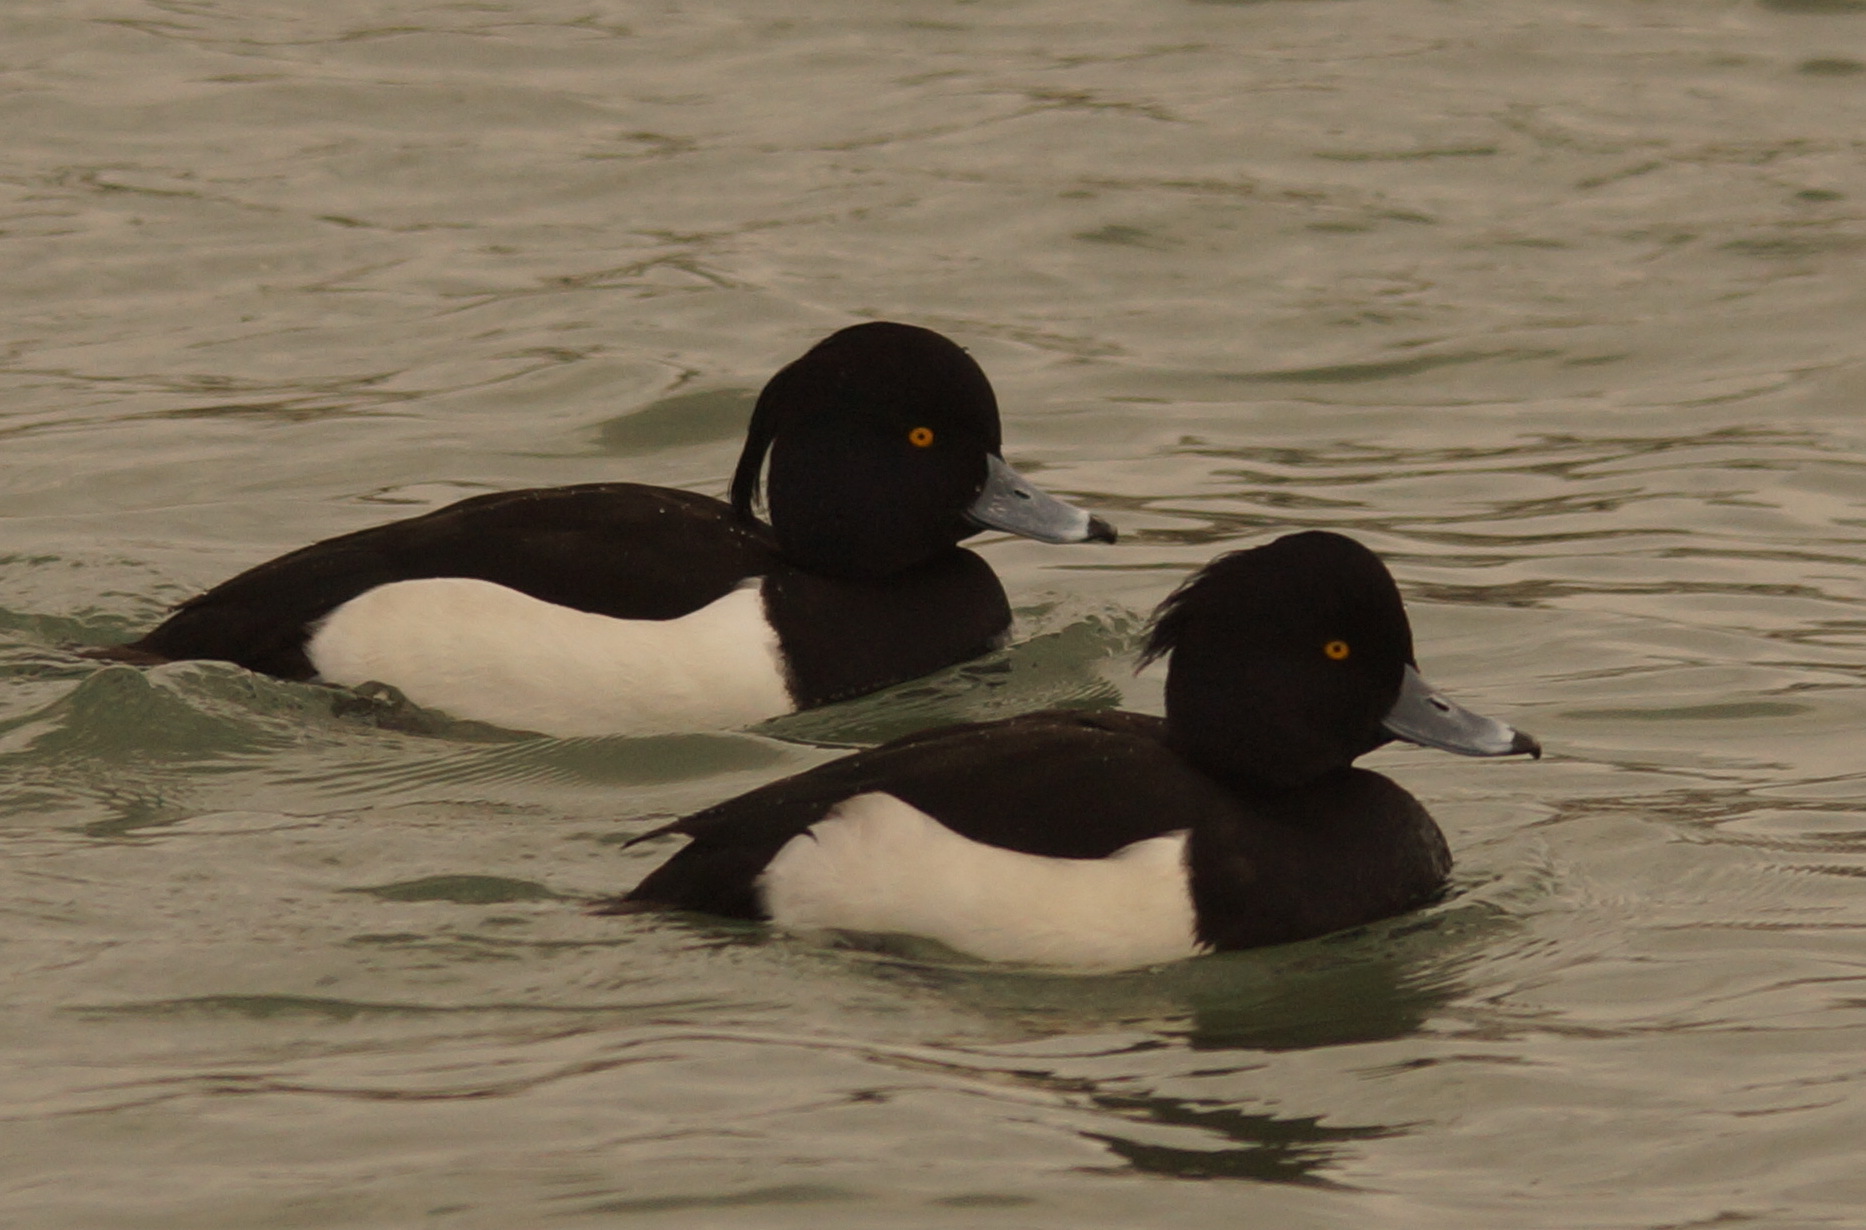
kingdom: Animalia
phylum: Chordata
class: Aves
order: Anseriformes
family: Anatidae
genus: Aythya
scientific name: Aythya fuligula
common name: Tufted duck
